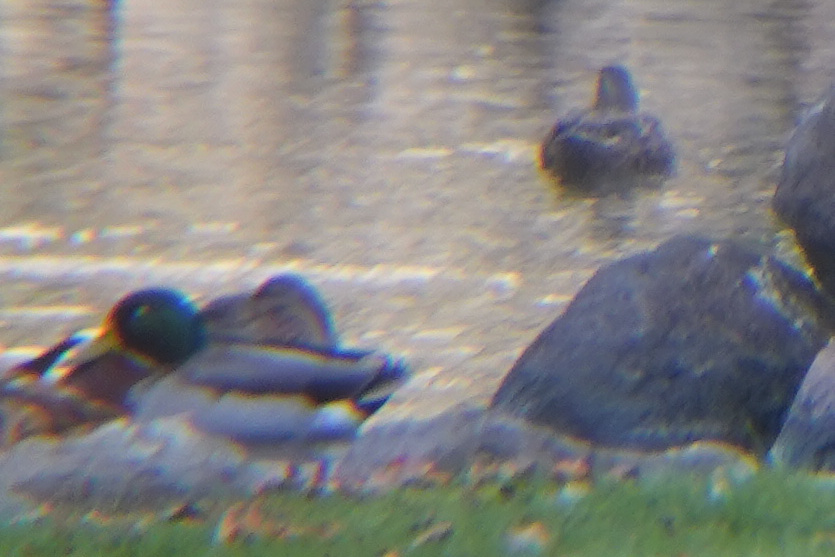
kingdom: Animalia
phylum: Chordata
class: Aves
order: Anseriformes
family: Anatidae
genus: Anas
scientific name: Anas platyrhynchos
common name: Mallard
